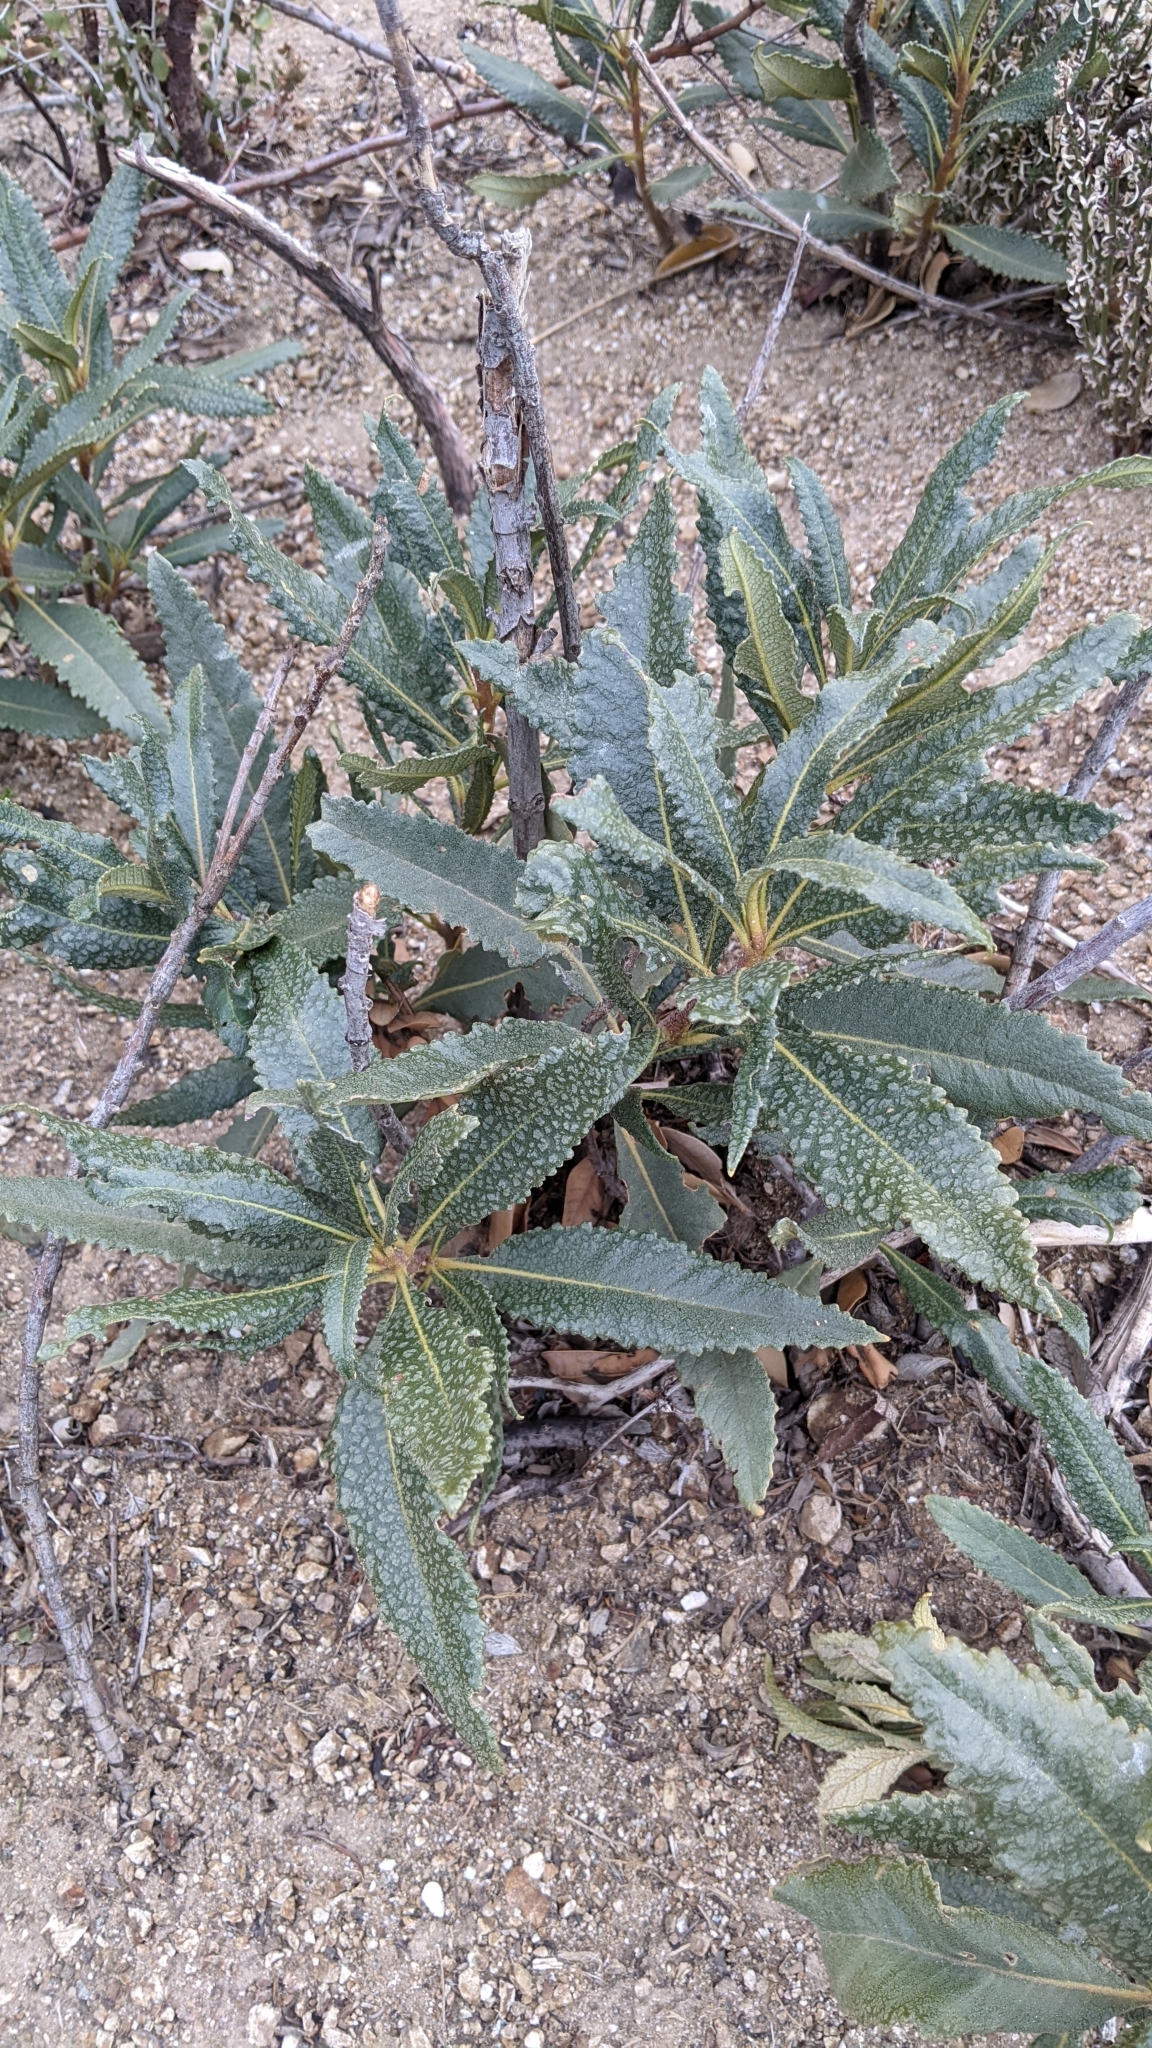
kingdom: Plantae
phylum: Tracheophyta
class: Magnoliopsida
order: Boraginales
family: Namaceae
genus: Eriodictyon
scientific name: Eriodictyon trichocalyx
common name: Hairy yerba-santa
